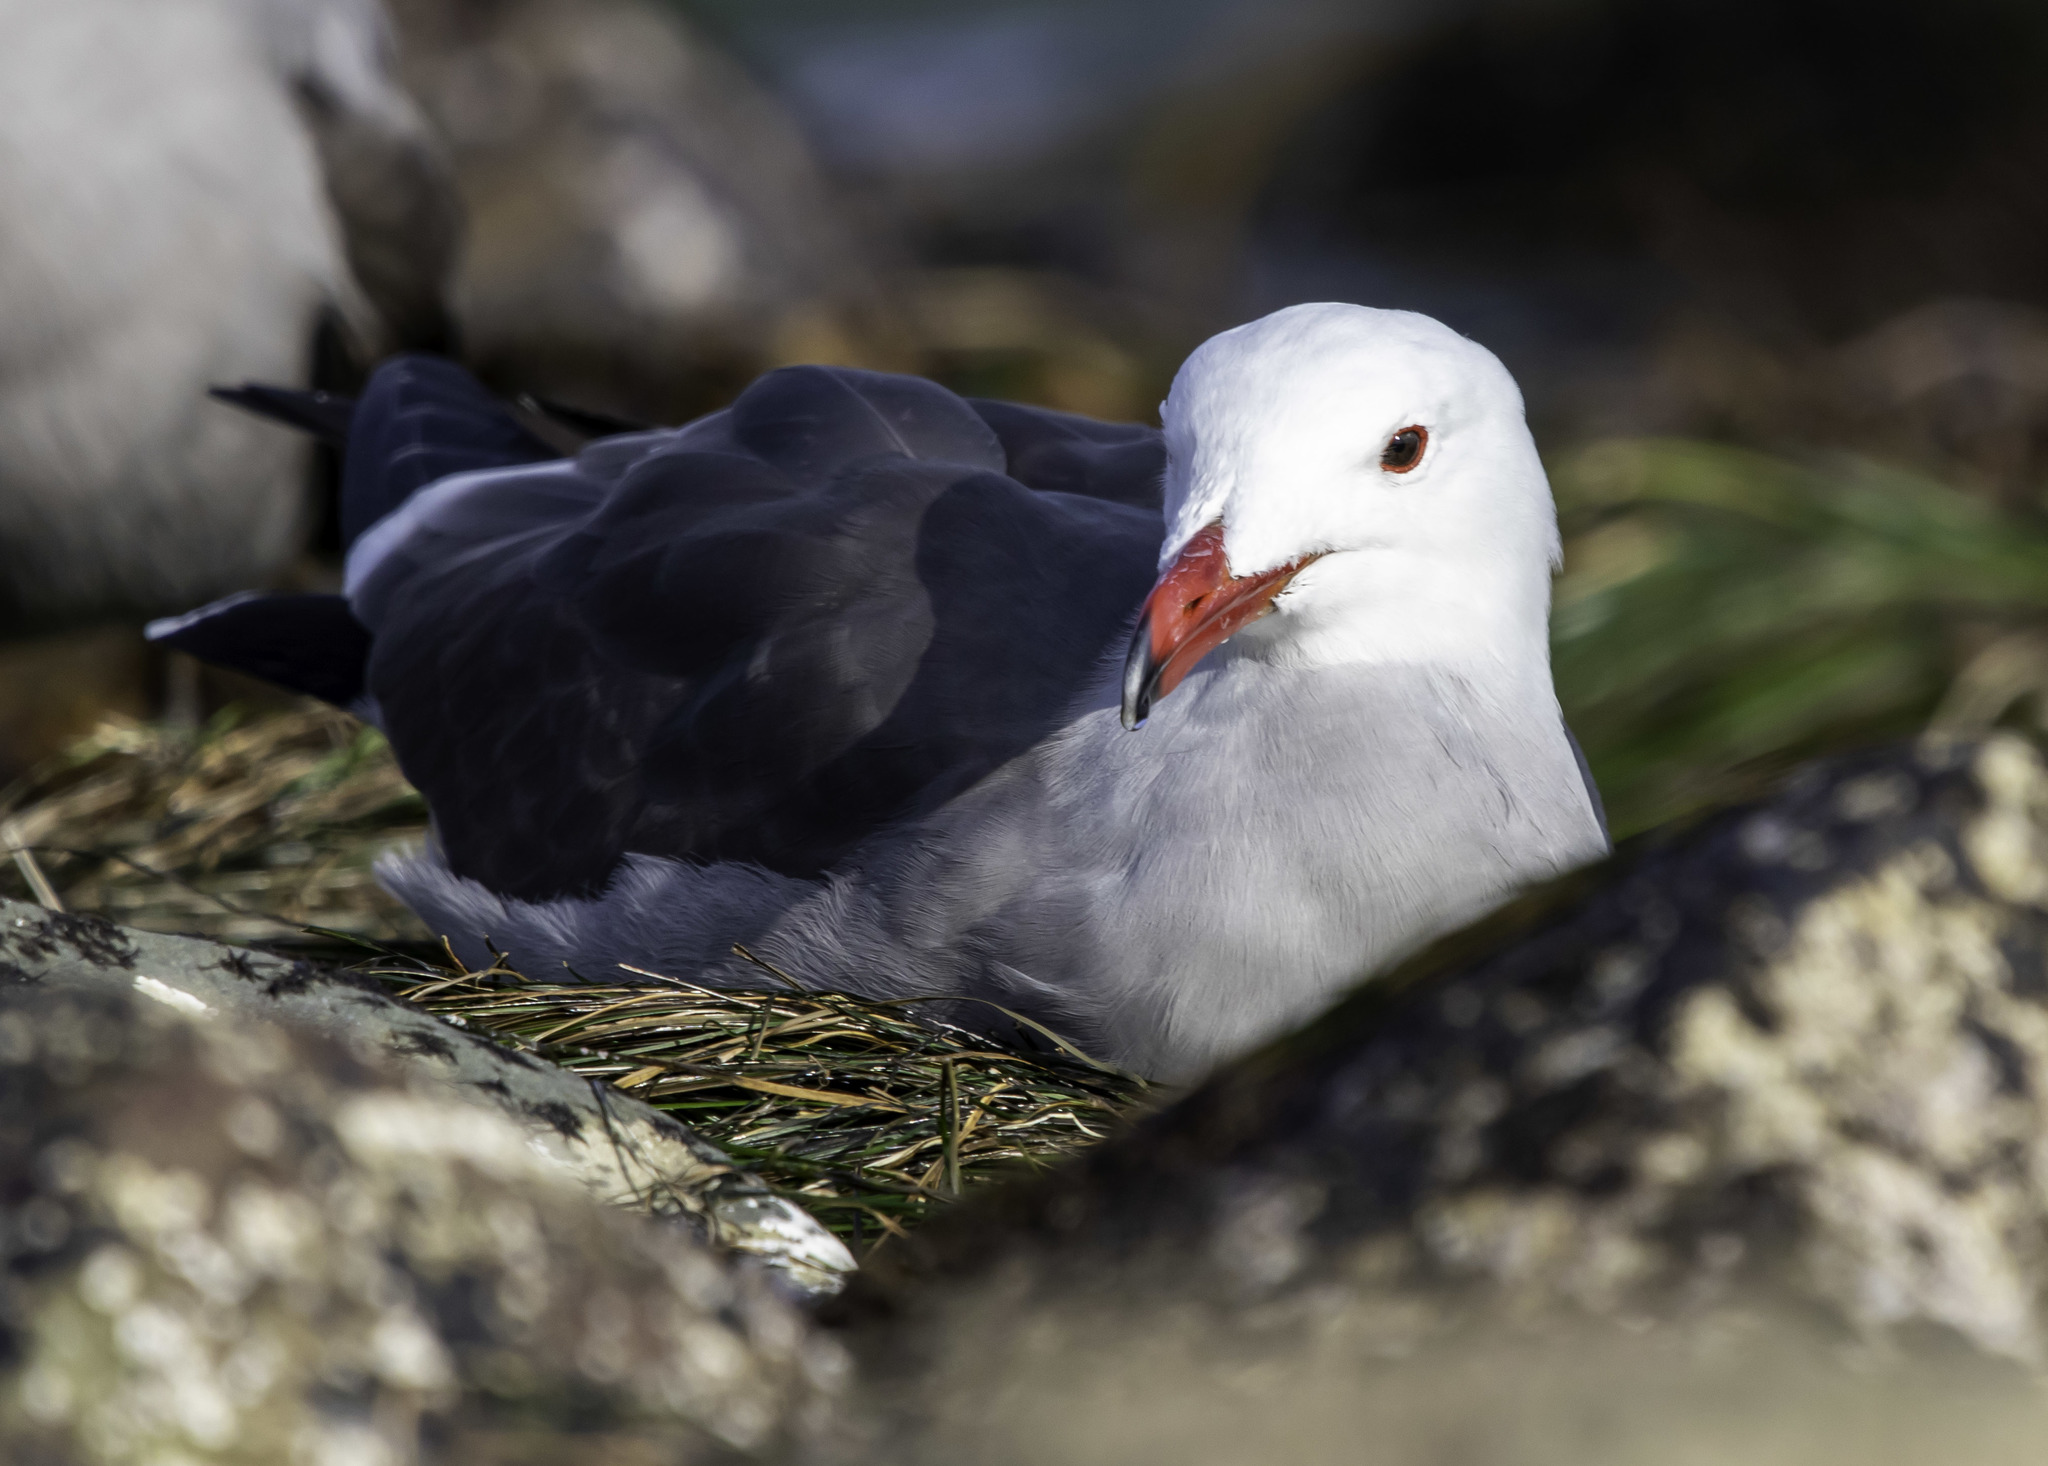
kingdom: Animalia
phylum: Chordata
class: Aves
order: Charadriiformes
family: Laridae
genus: Larus
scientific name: Larus heermanni
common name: Heermann's gull
